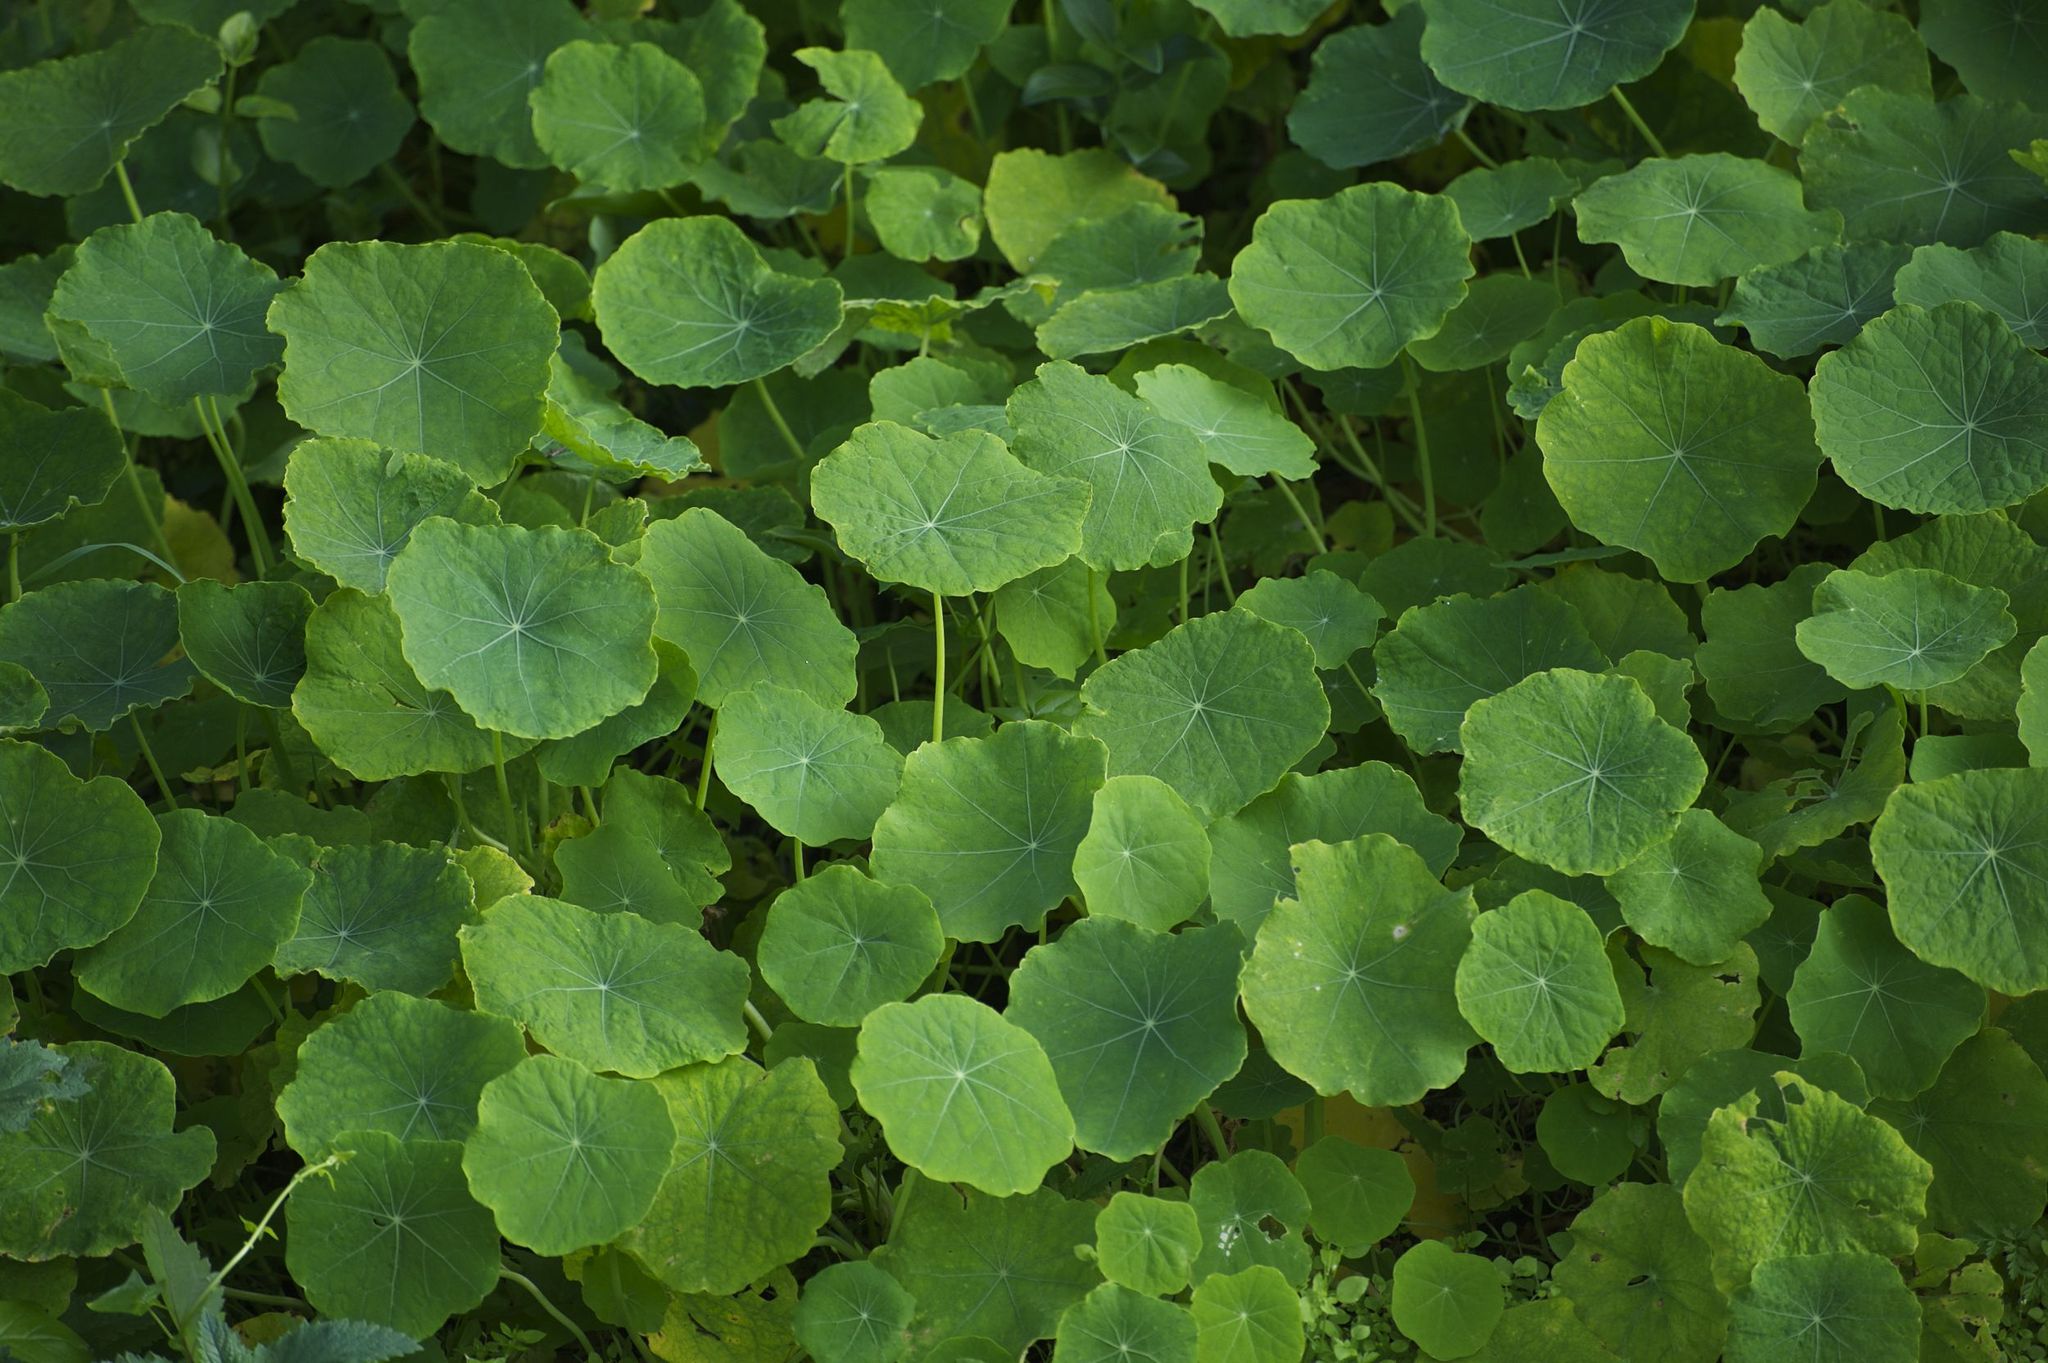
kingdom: Plantae
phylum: Tracheophyta
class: Magnoliopsida
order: Brassicales
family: Tropaeolaceae
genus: Tropaeolum
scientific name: Tropaeolum majus
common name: Nasturtium
